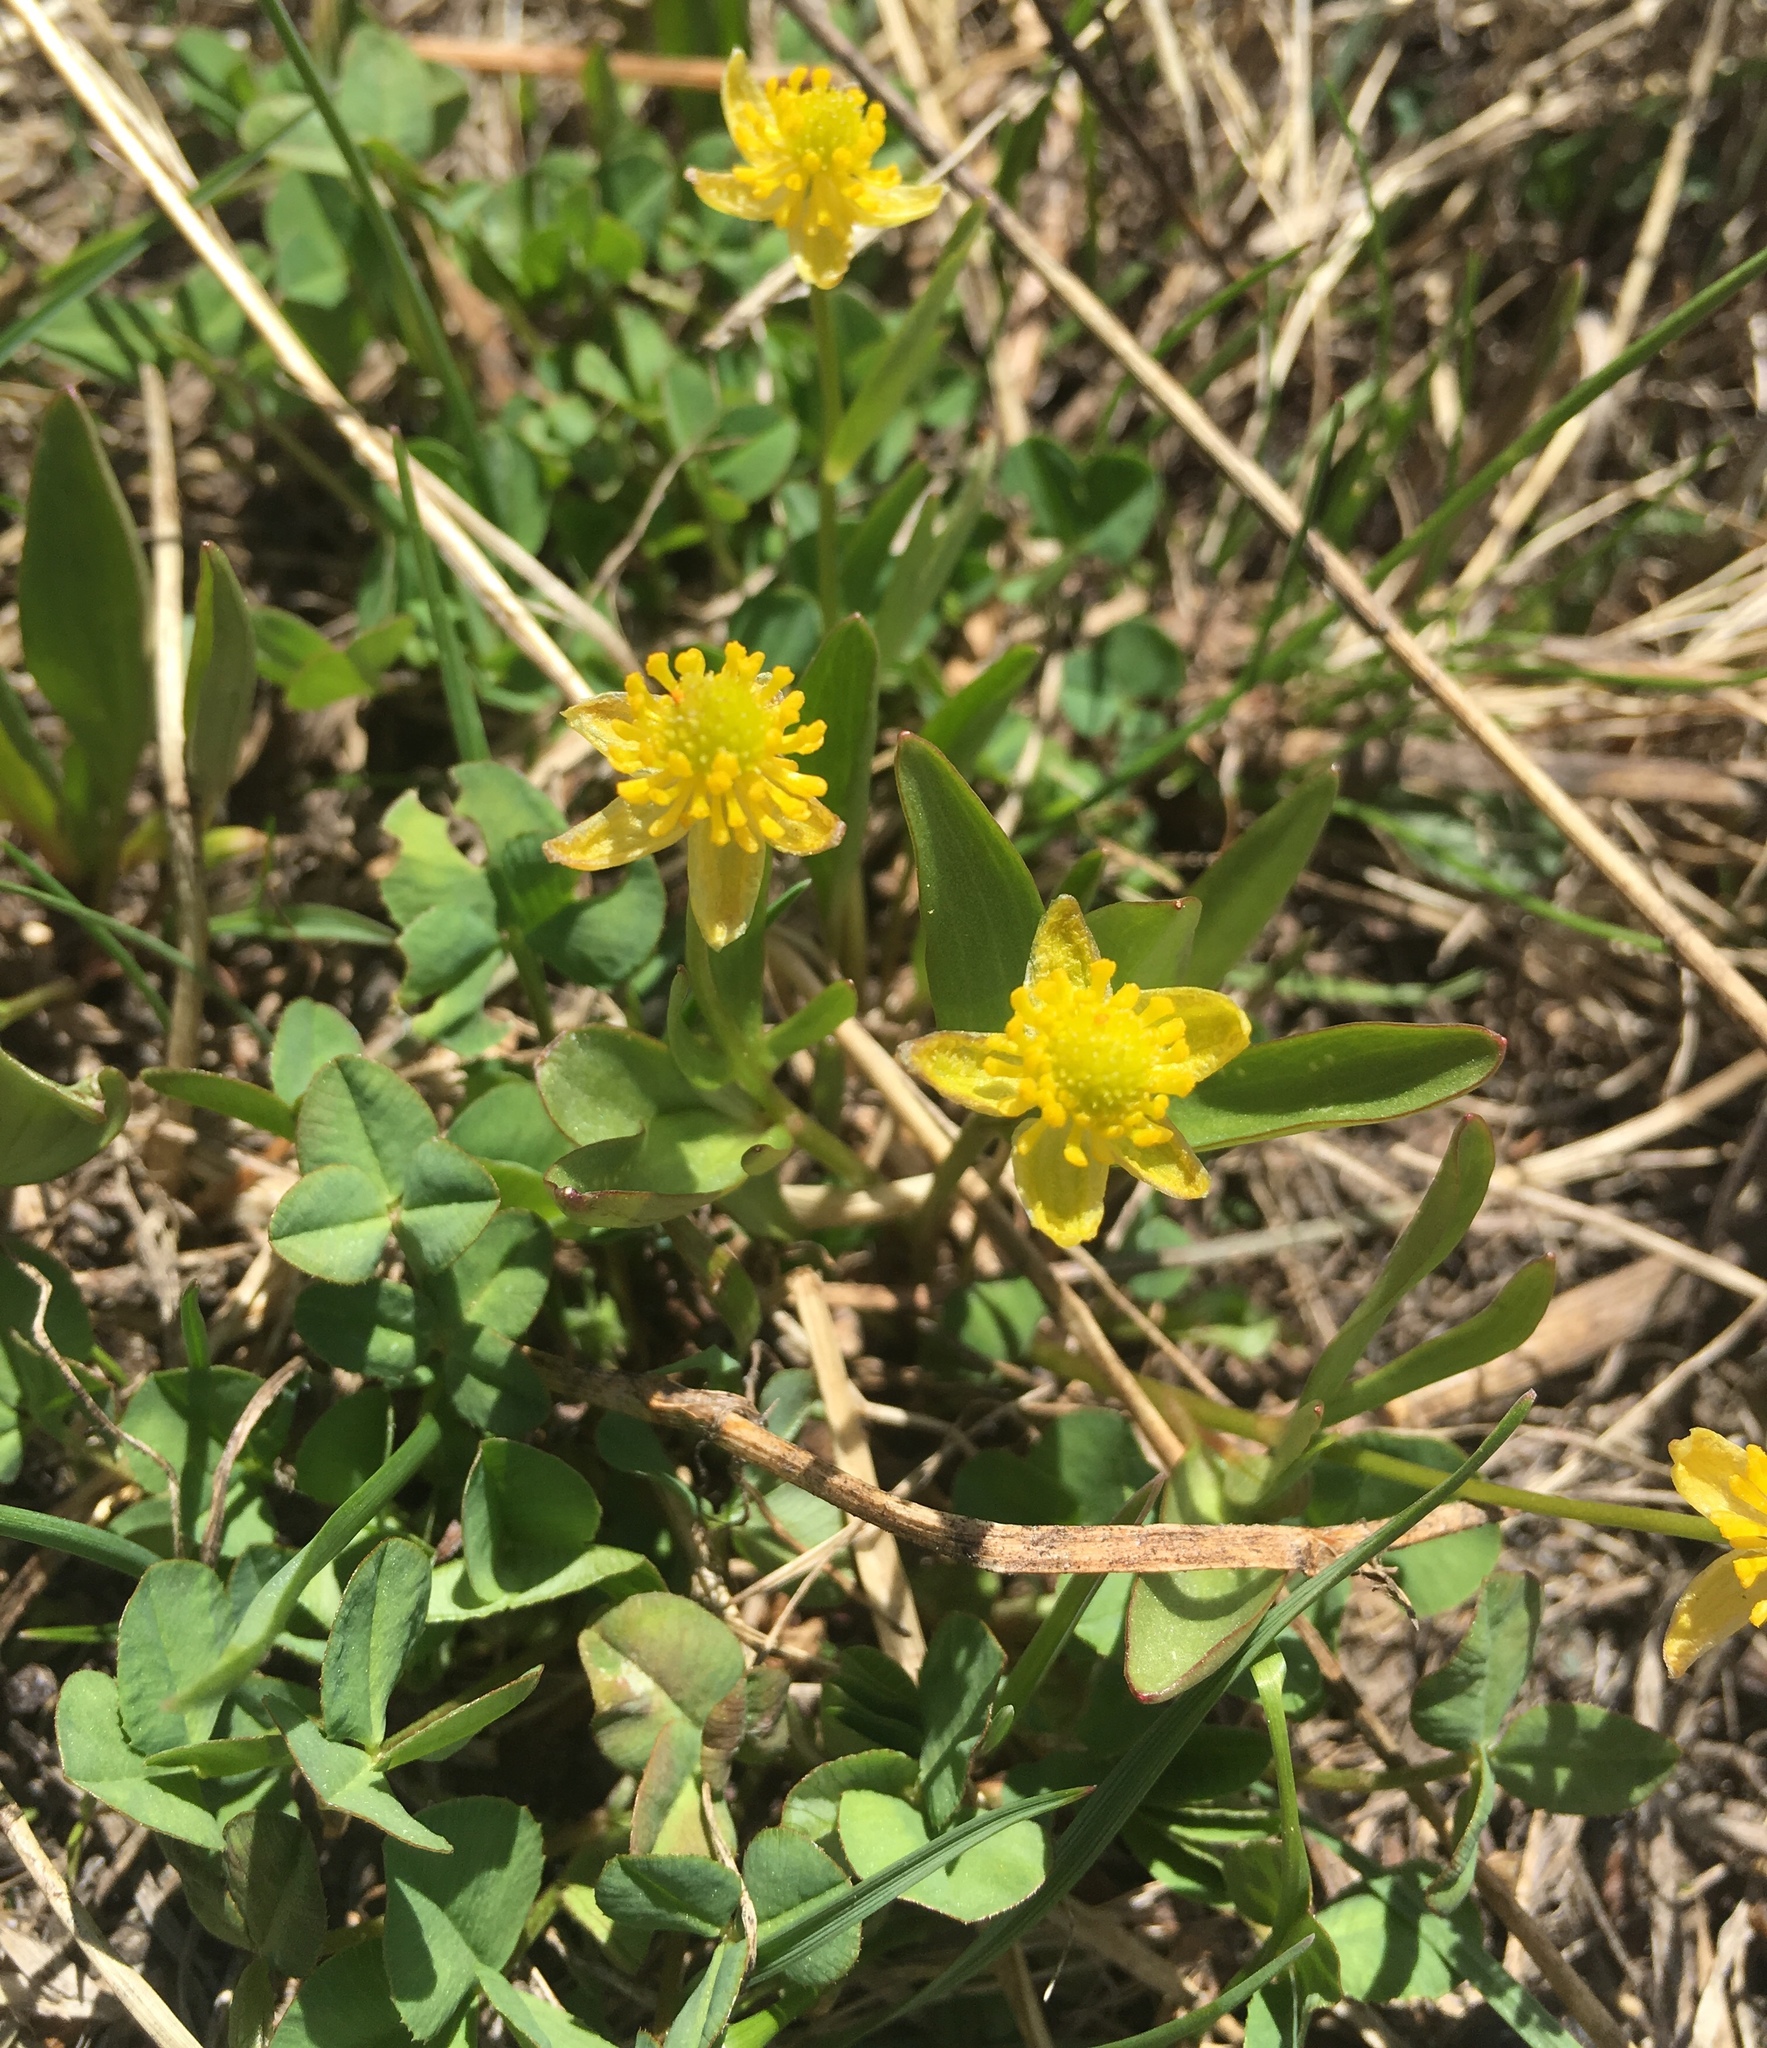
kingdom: Plantae
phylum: Tracheophyta
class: Magnoliopsida
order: Ranunculales
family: Ranunculaceae
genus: Ranunculus
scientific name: Ranunculus glaberrimus
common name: Sagebrush buttercup
